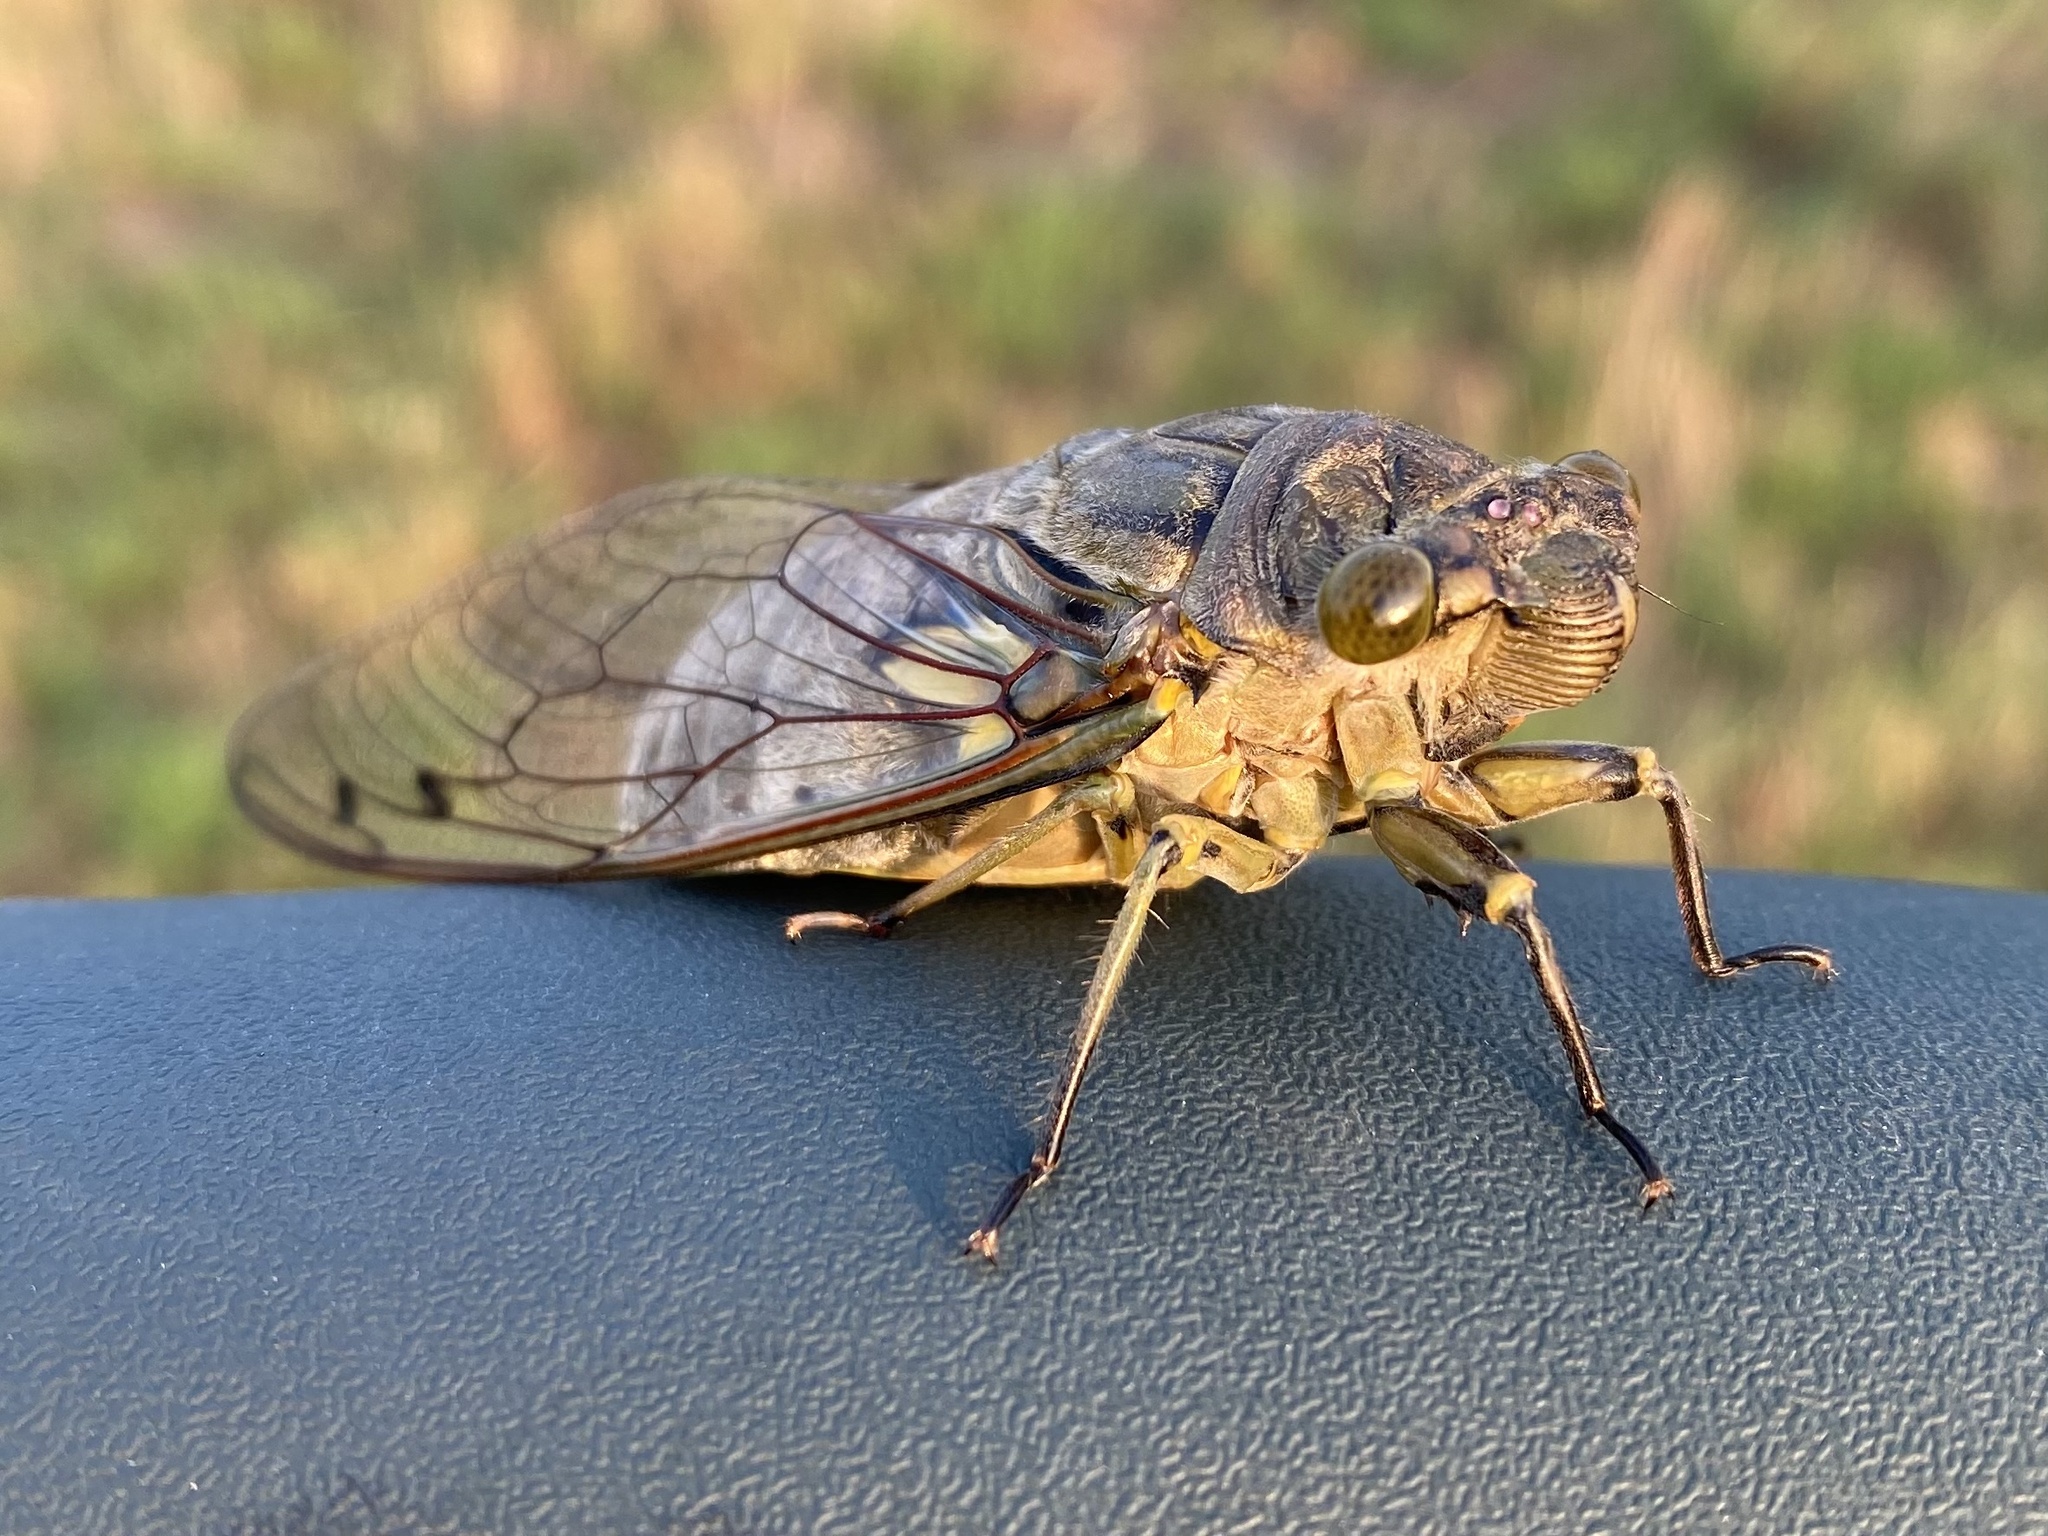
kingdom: Animalia
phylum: Arthropoda
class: Insecta
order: Hemiptera
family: Cicadidae
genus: Quesada
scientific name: Quesada gigas
